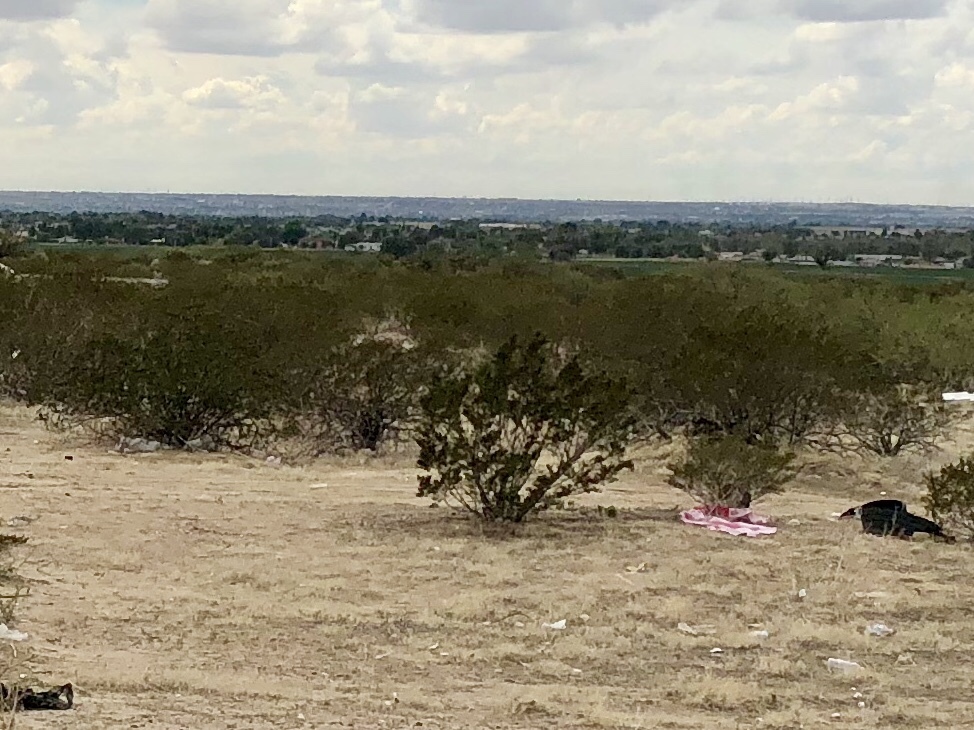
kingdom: Plantae
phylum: Tracheophyta
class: Magnoliopsida
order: Zygophyllales
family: Zygophyllaceae
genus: Larrea
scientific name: Larrea tridentata
